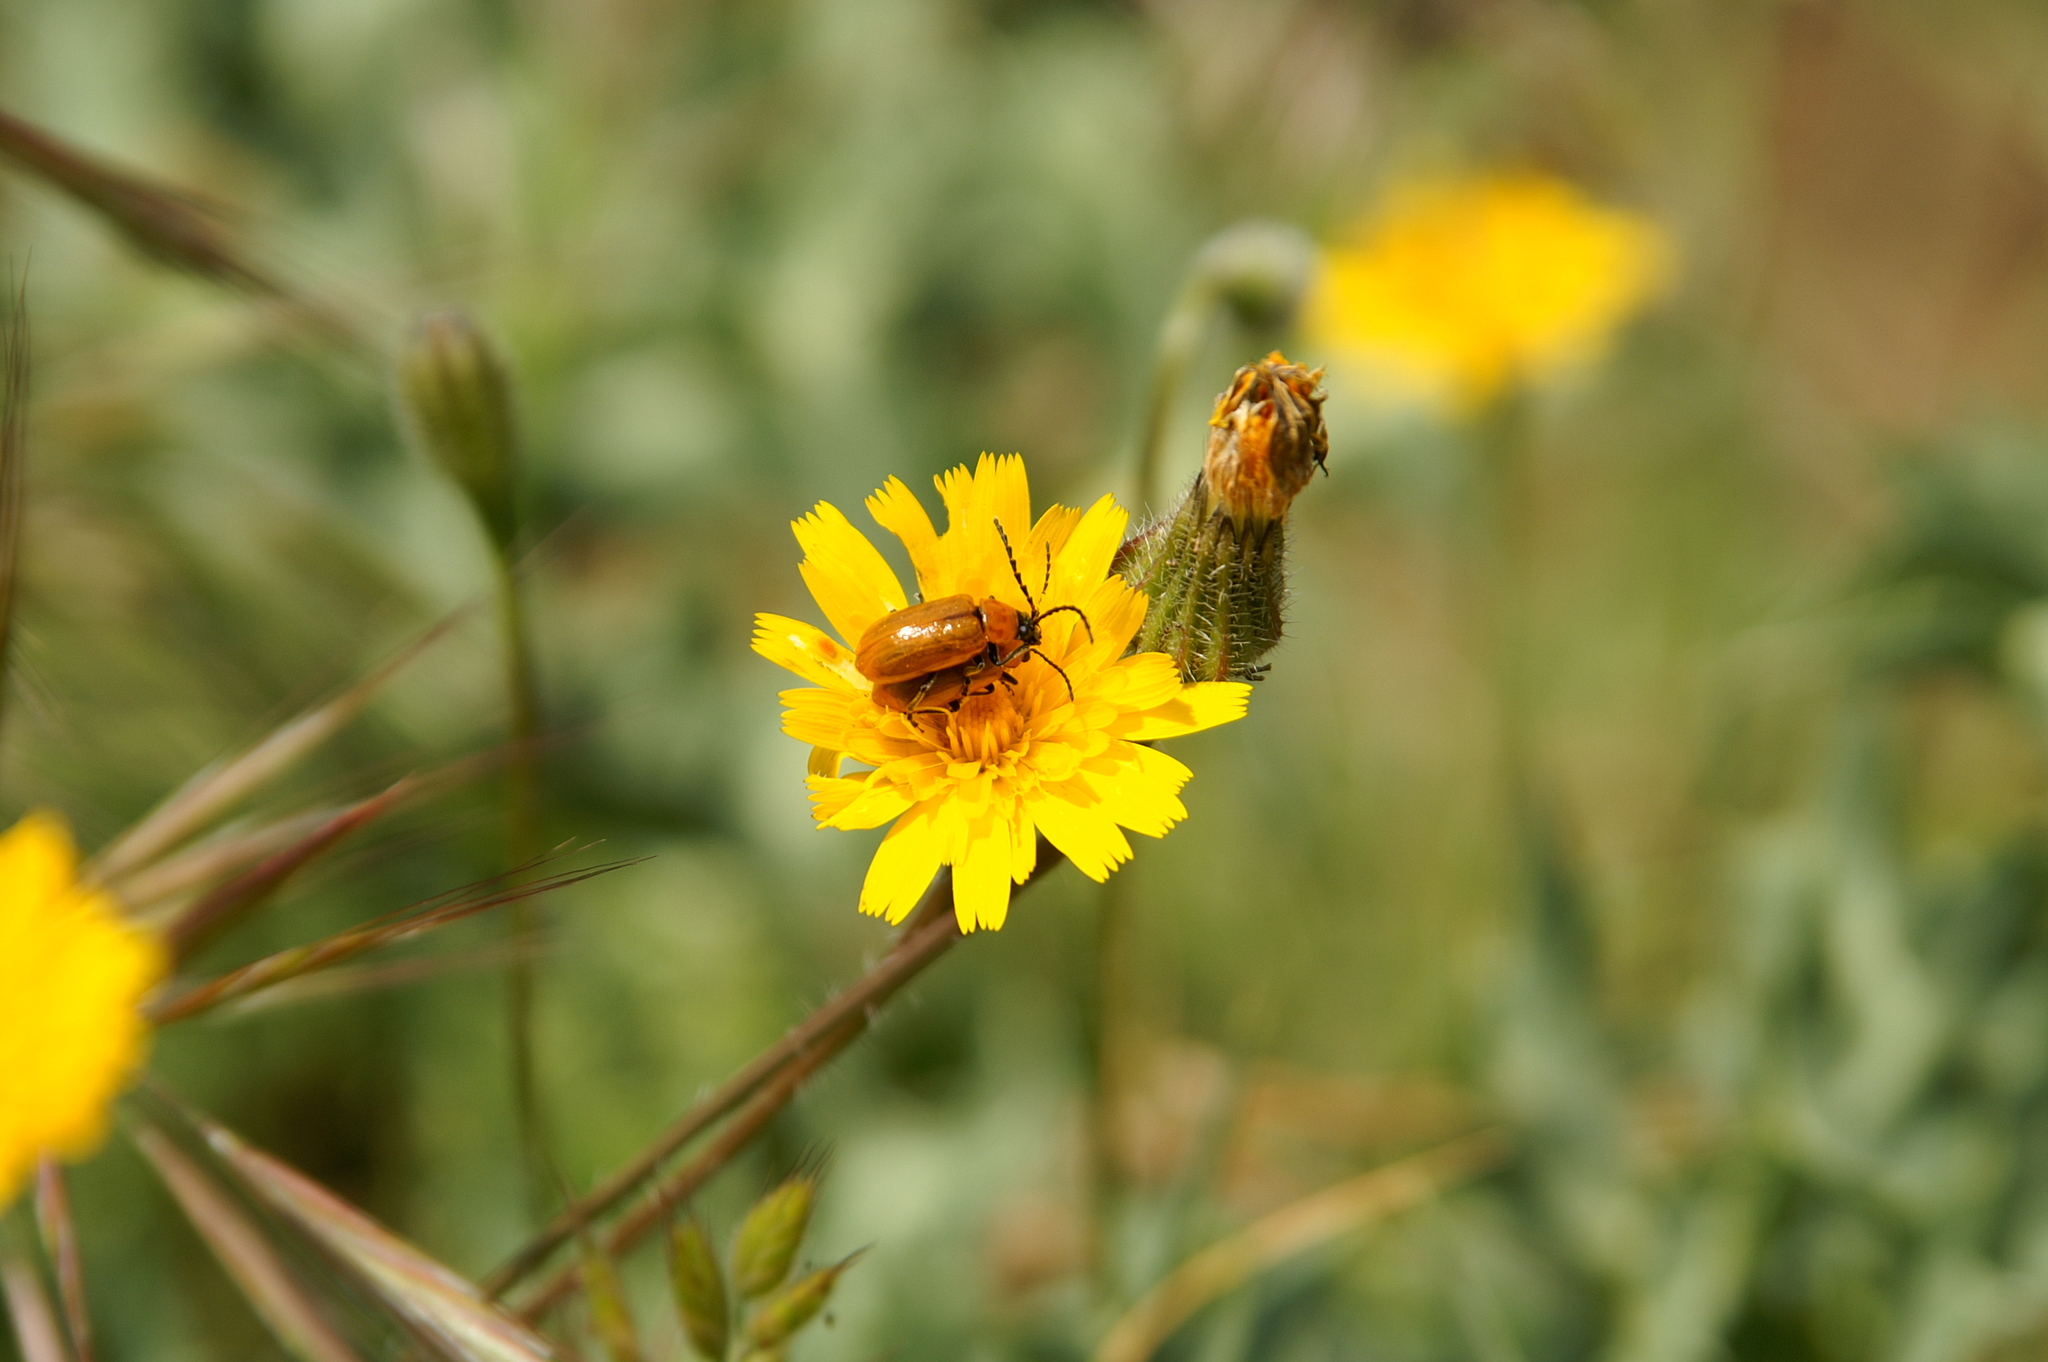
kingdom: Animalia
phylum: Arthropoda
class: Insecta
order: Coleoptera
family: Chrysomelidae
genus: Exosoma
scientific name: Exosoma lusitanicum
